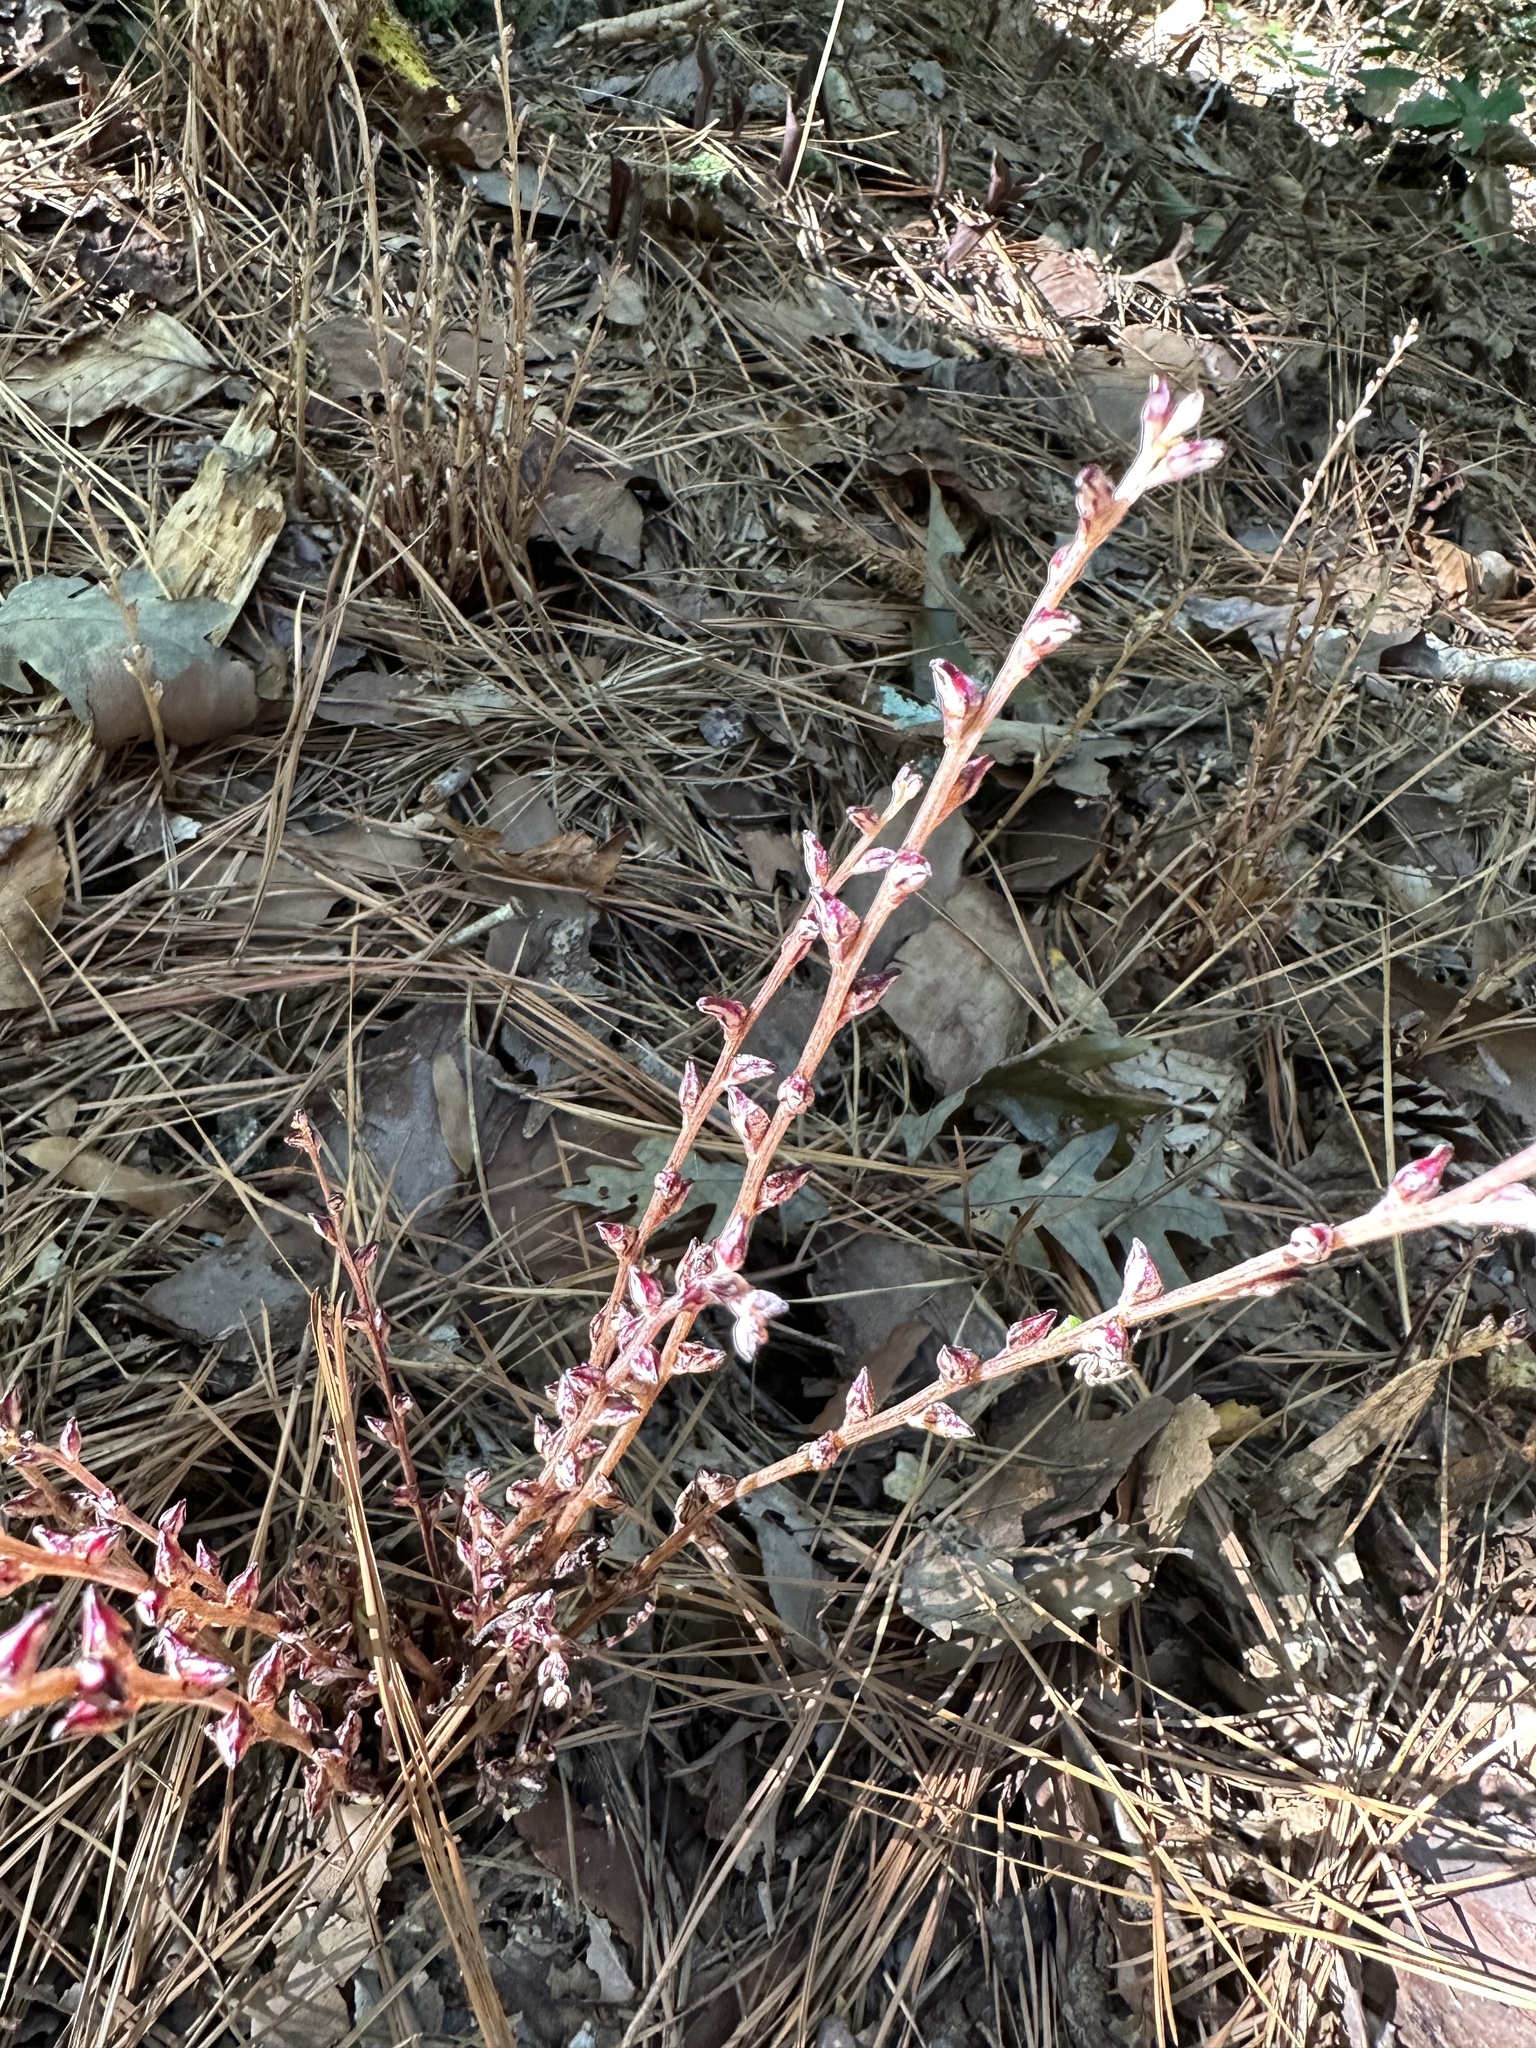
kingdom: Plantae
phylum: Tracheophyta
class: Magnoliopsida
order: Lamiales
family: Orobanchaceae
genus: Epifagus
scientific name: Epifagus virginiana
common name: Beechdrops
